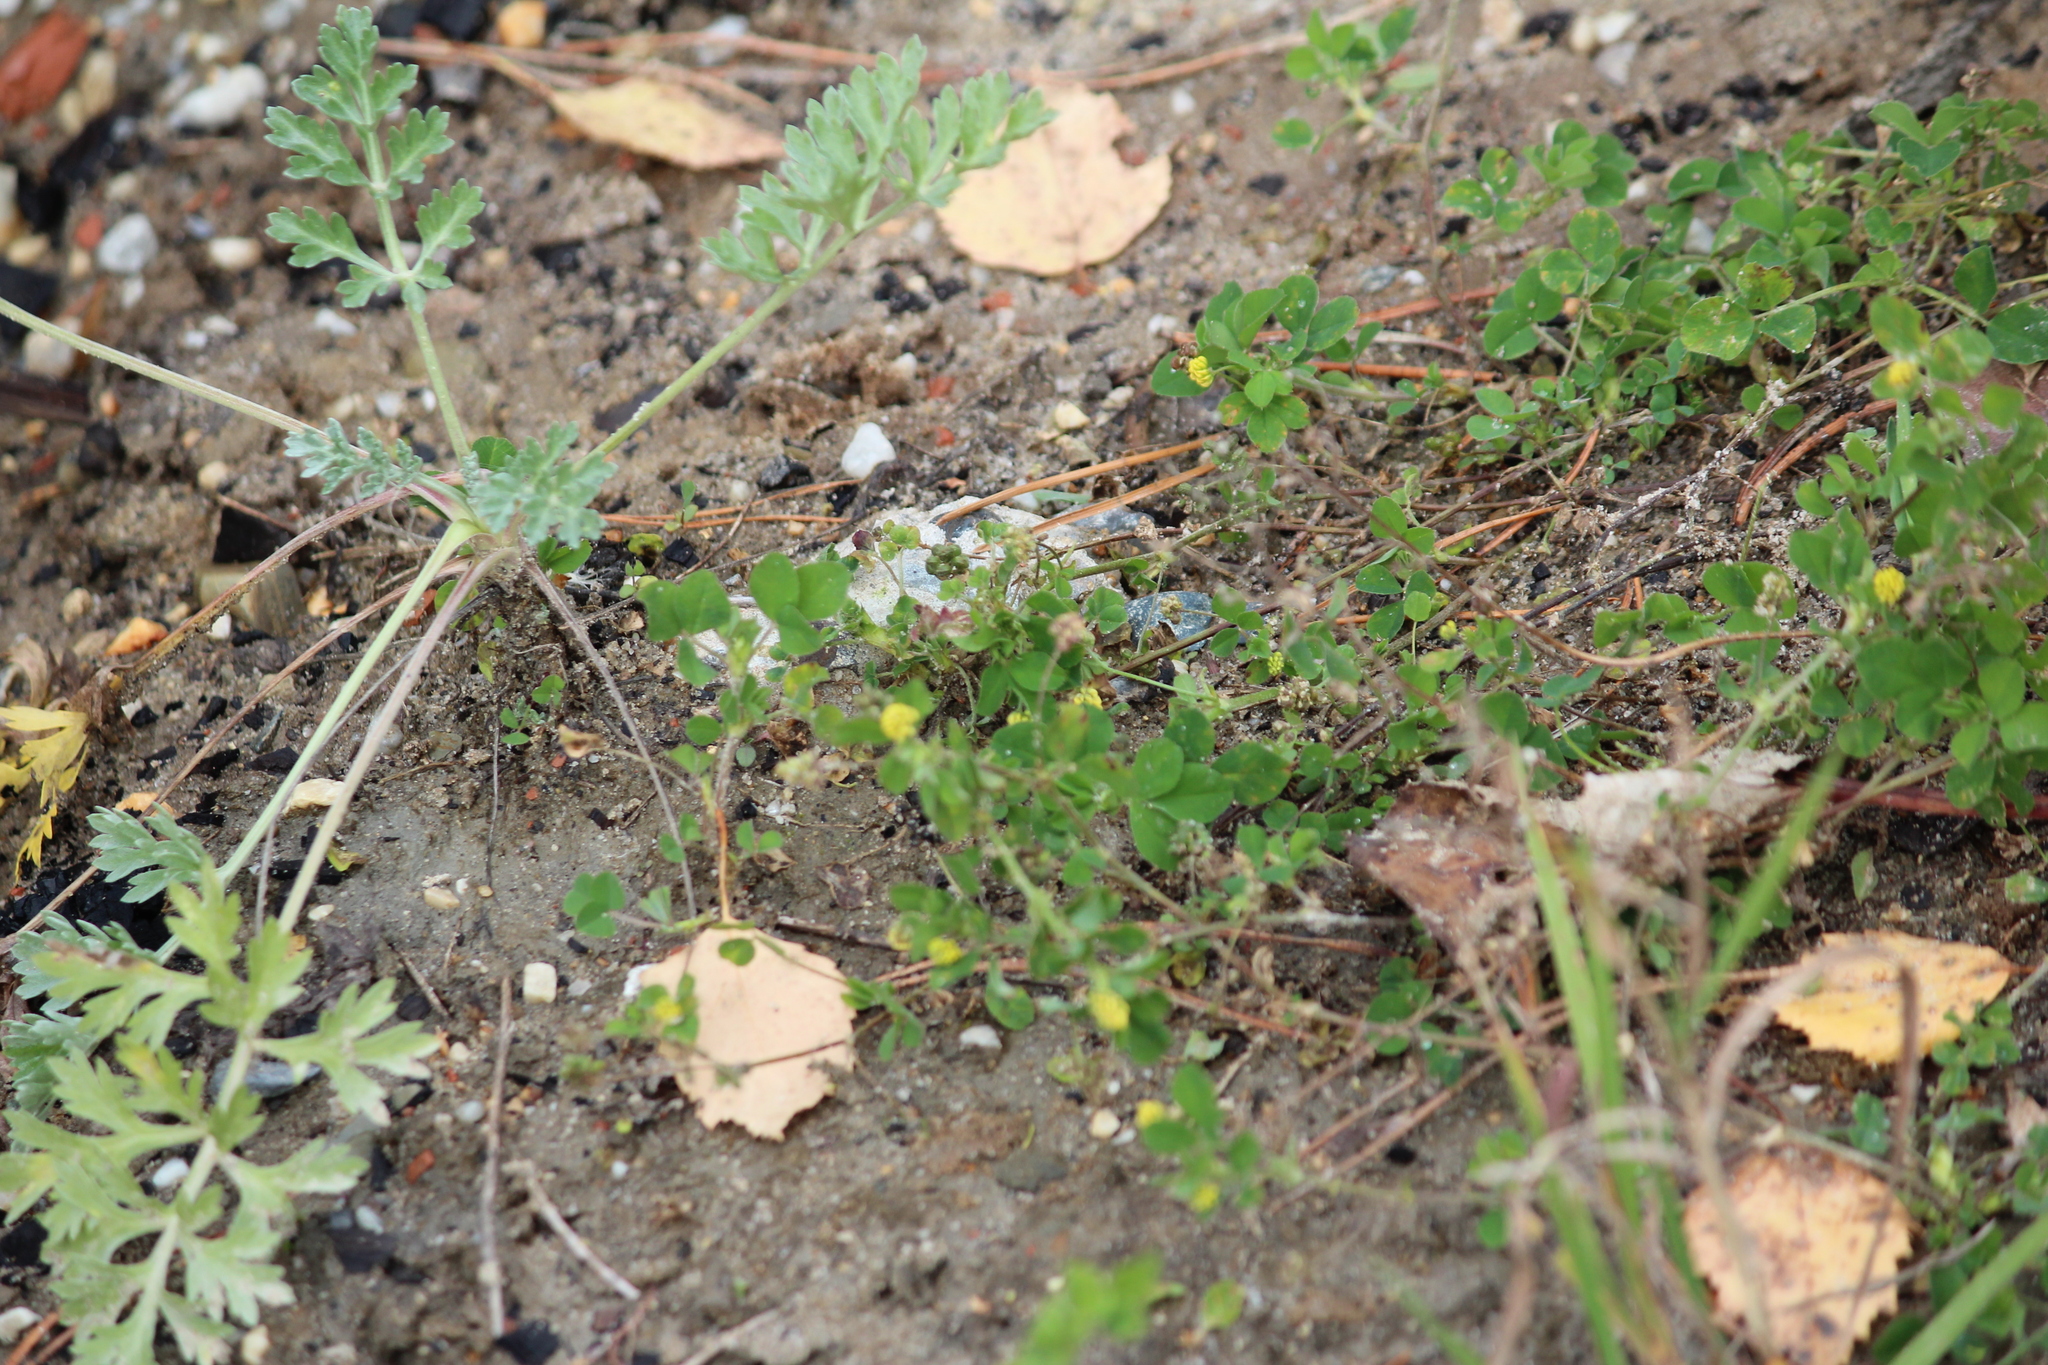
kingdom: Plantae
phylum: Tracheophyta
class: Magnoliopsida
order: Fabales
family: Fabaceae
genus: Medicago
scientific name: Medicago lupulina
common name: Black medick
